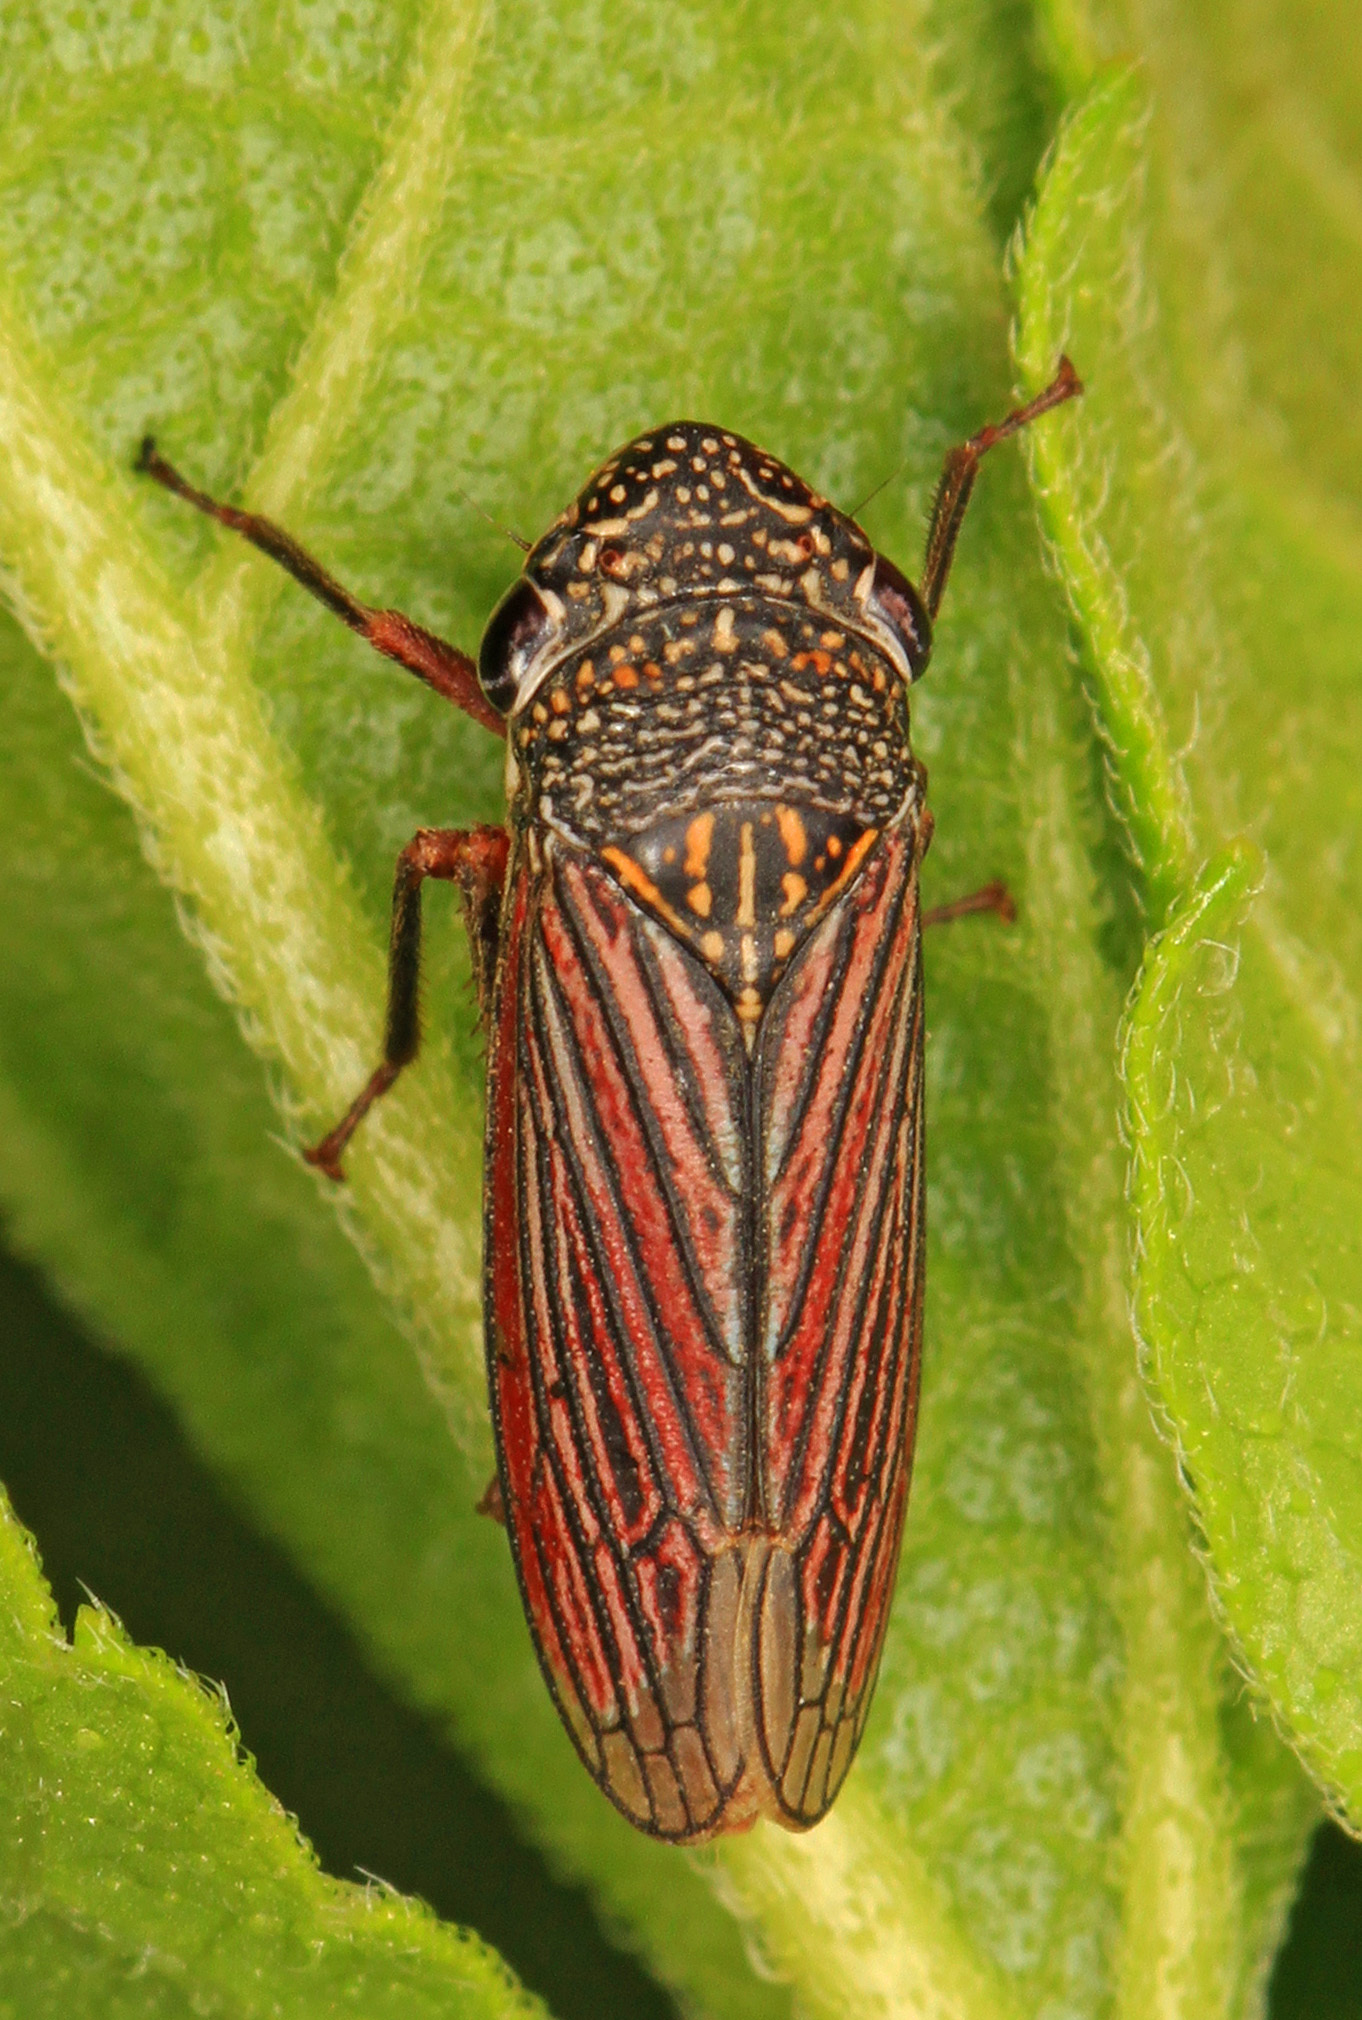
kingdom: Animalia
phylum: Arthropoda
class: Insecta
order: Hemiptera
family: Cicadellidae
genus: Cuerna
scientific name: Cuerna costalis
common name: Lateral-lined sharpshooter
